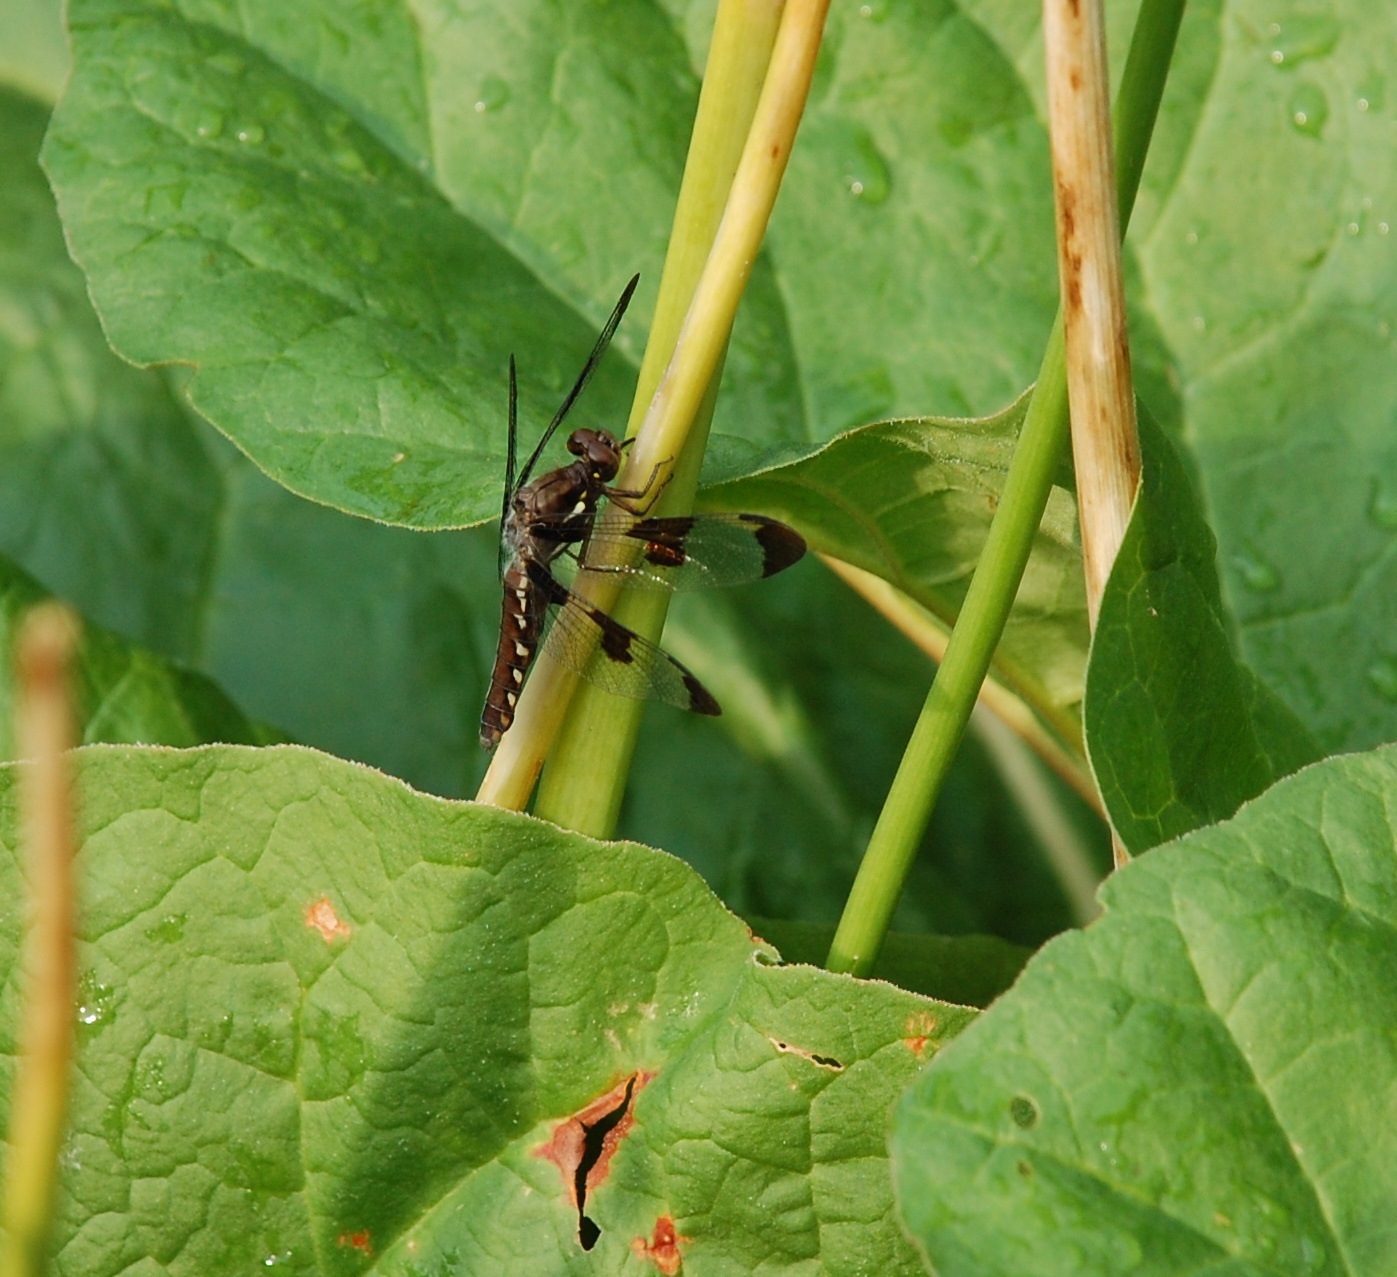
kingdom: Animalia
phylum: Arthropoda
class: Insecta
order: Odonata
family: Libellulidae
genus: Plathemis
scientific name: Plathemis lydia
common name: Common whitetail
